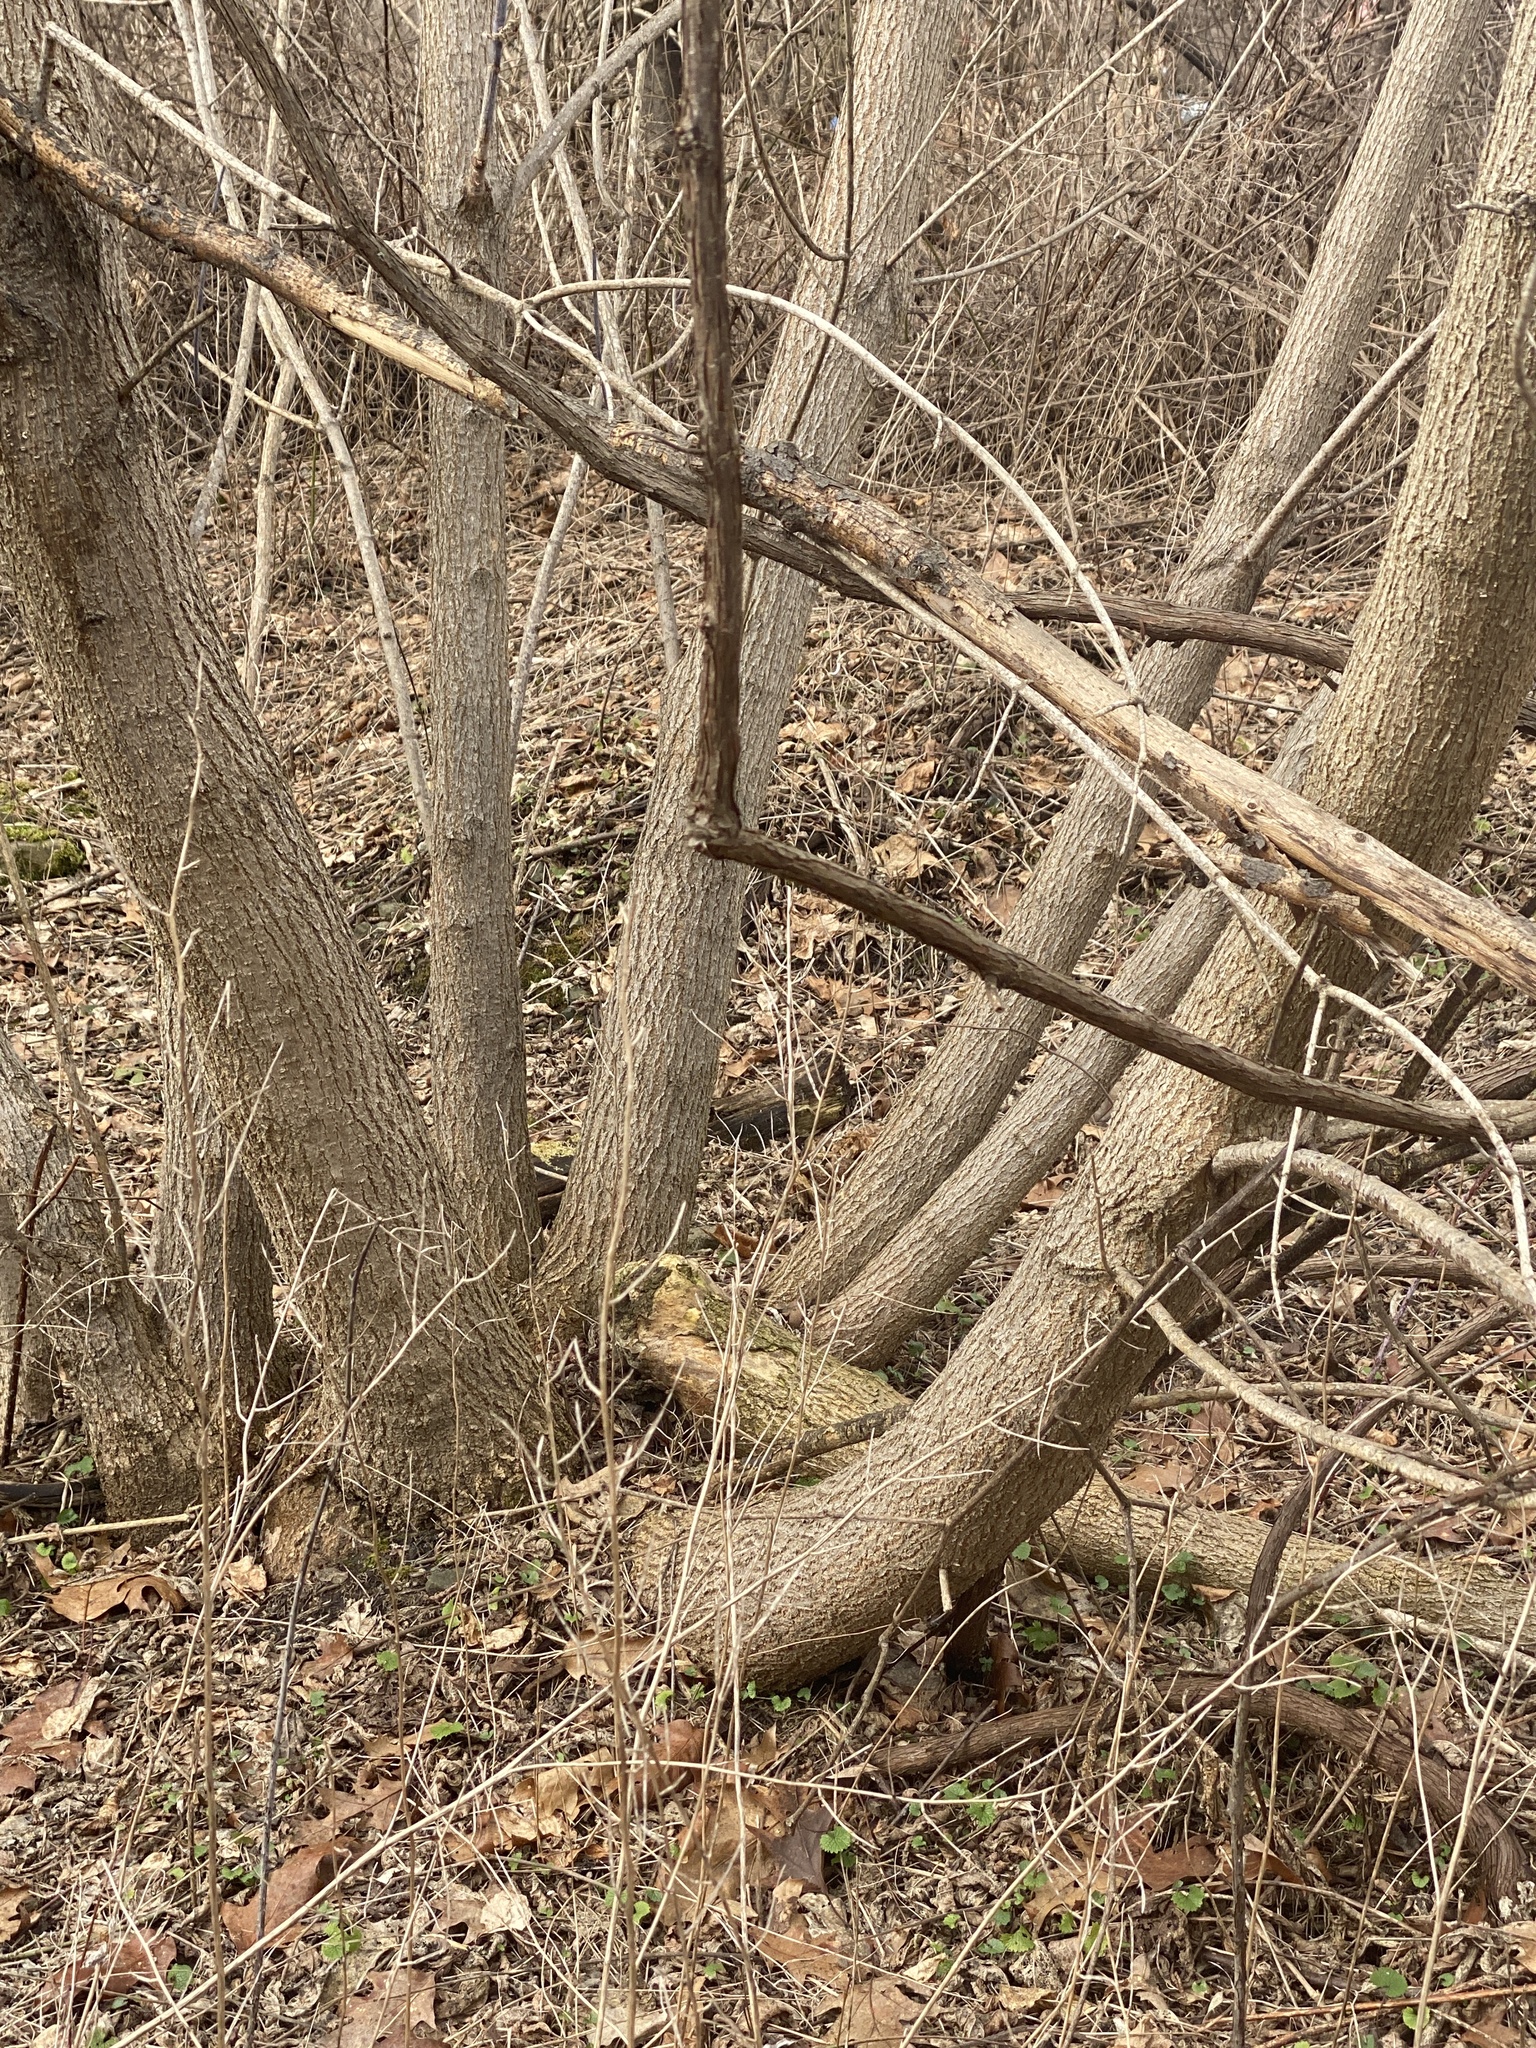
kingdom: Plantae
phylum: Tracheophyta
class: Magnoliopsida
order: Sapindales
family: Sapindaceae
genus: Acer
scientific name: Acer negundo
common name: Ashleaf maple
